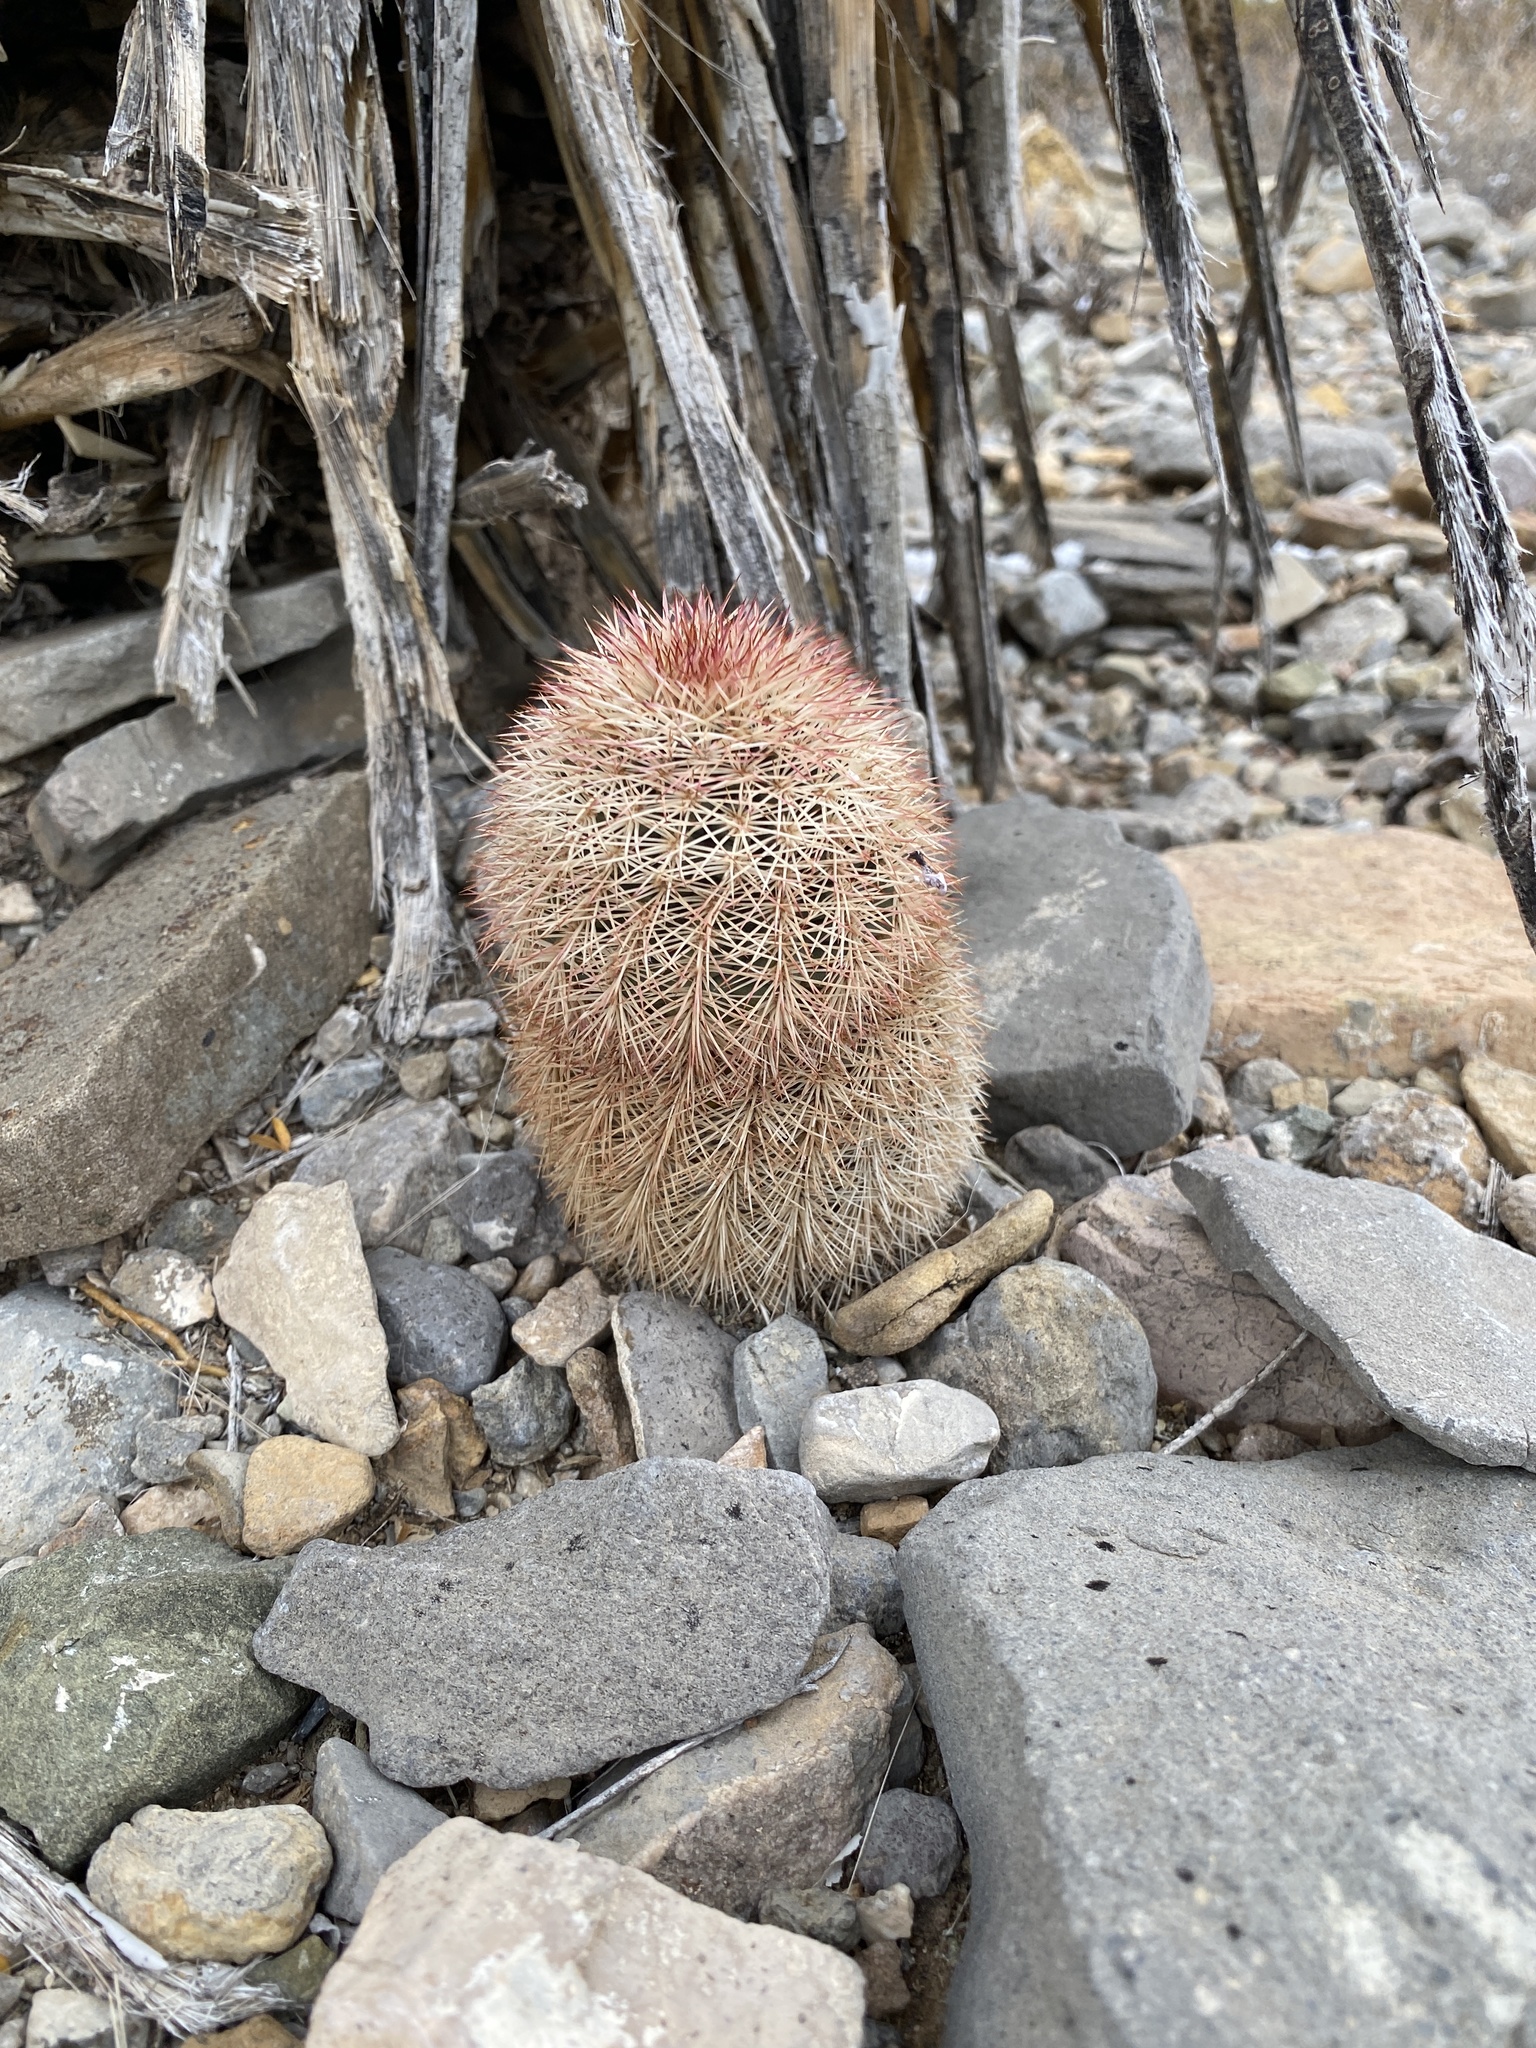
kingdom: Plantae
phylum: Tracheophyta
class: Magnoliopsida
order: Caryophyllales
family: Cactaceae
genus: Echinocereus
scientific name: Echinocereus dasyacanthus
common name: Spiny hedgehog cactus
